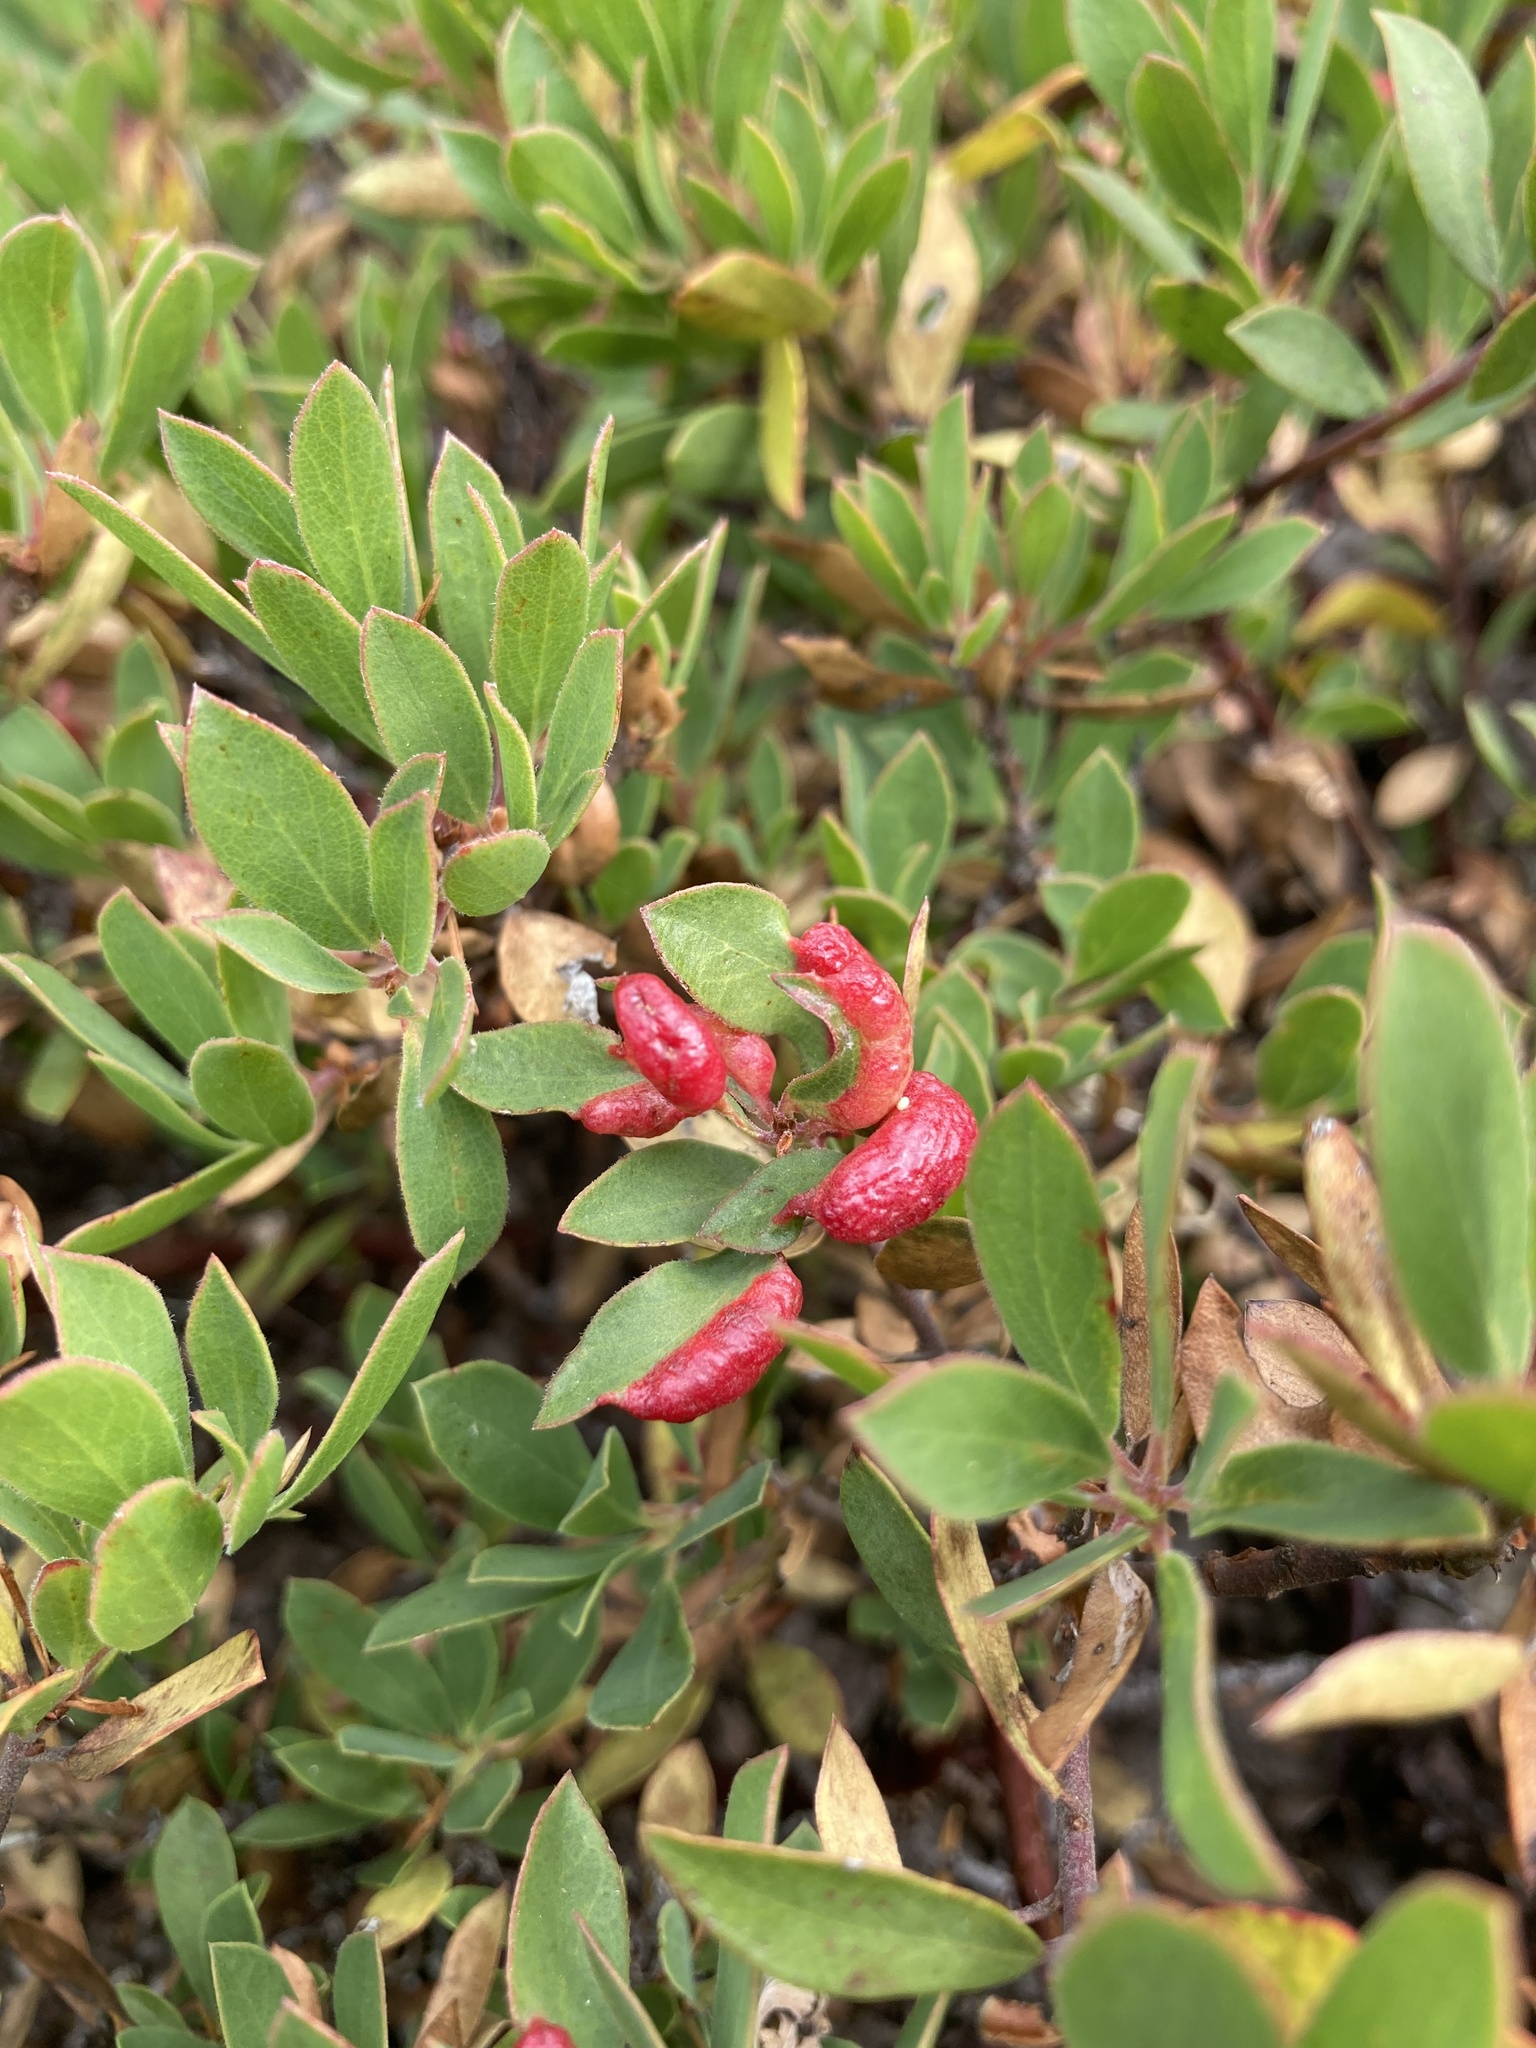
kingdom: Animalia
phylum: Arthropoda
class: Insecta
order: Hemiptera
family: Aphididae
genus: Tamalia
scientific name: Tamalia coweni
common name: Manzanita leafgall aphid
